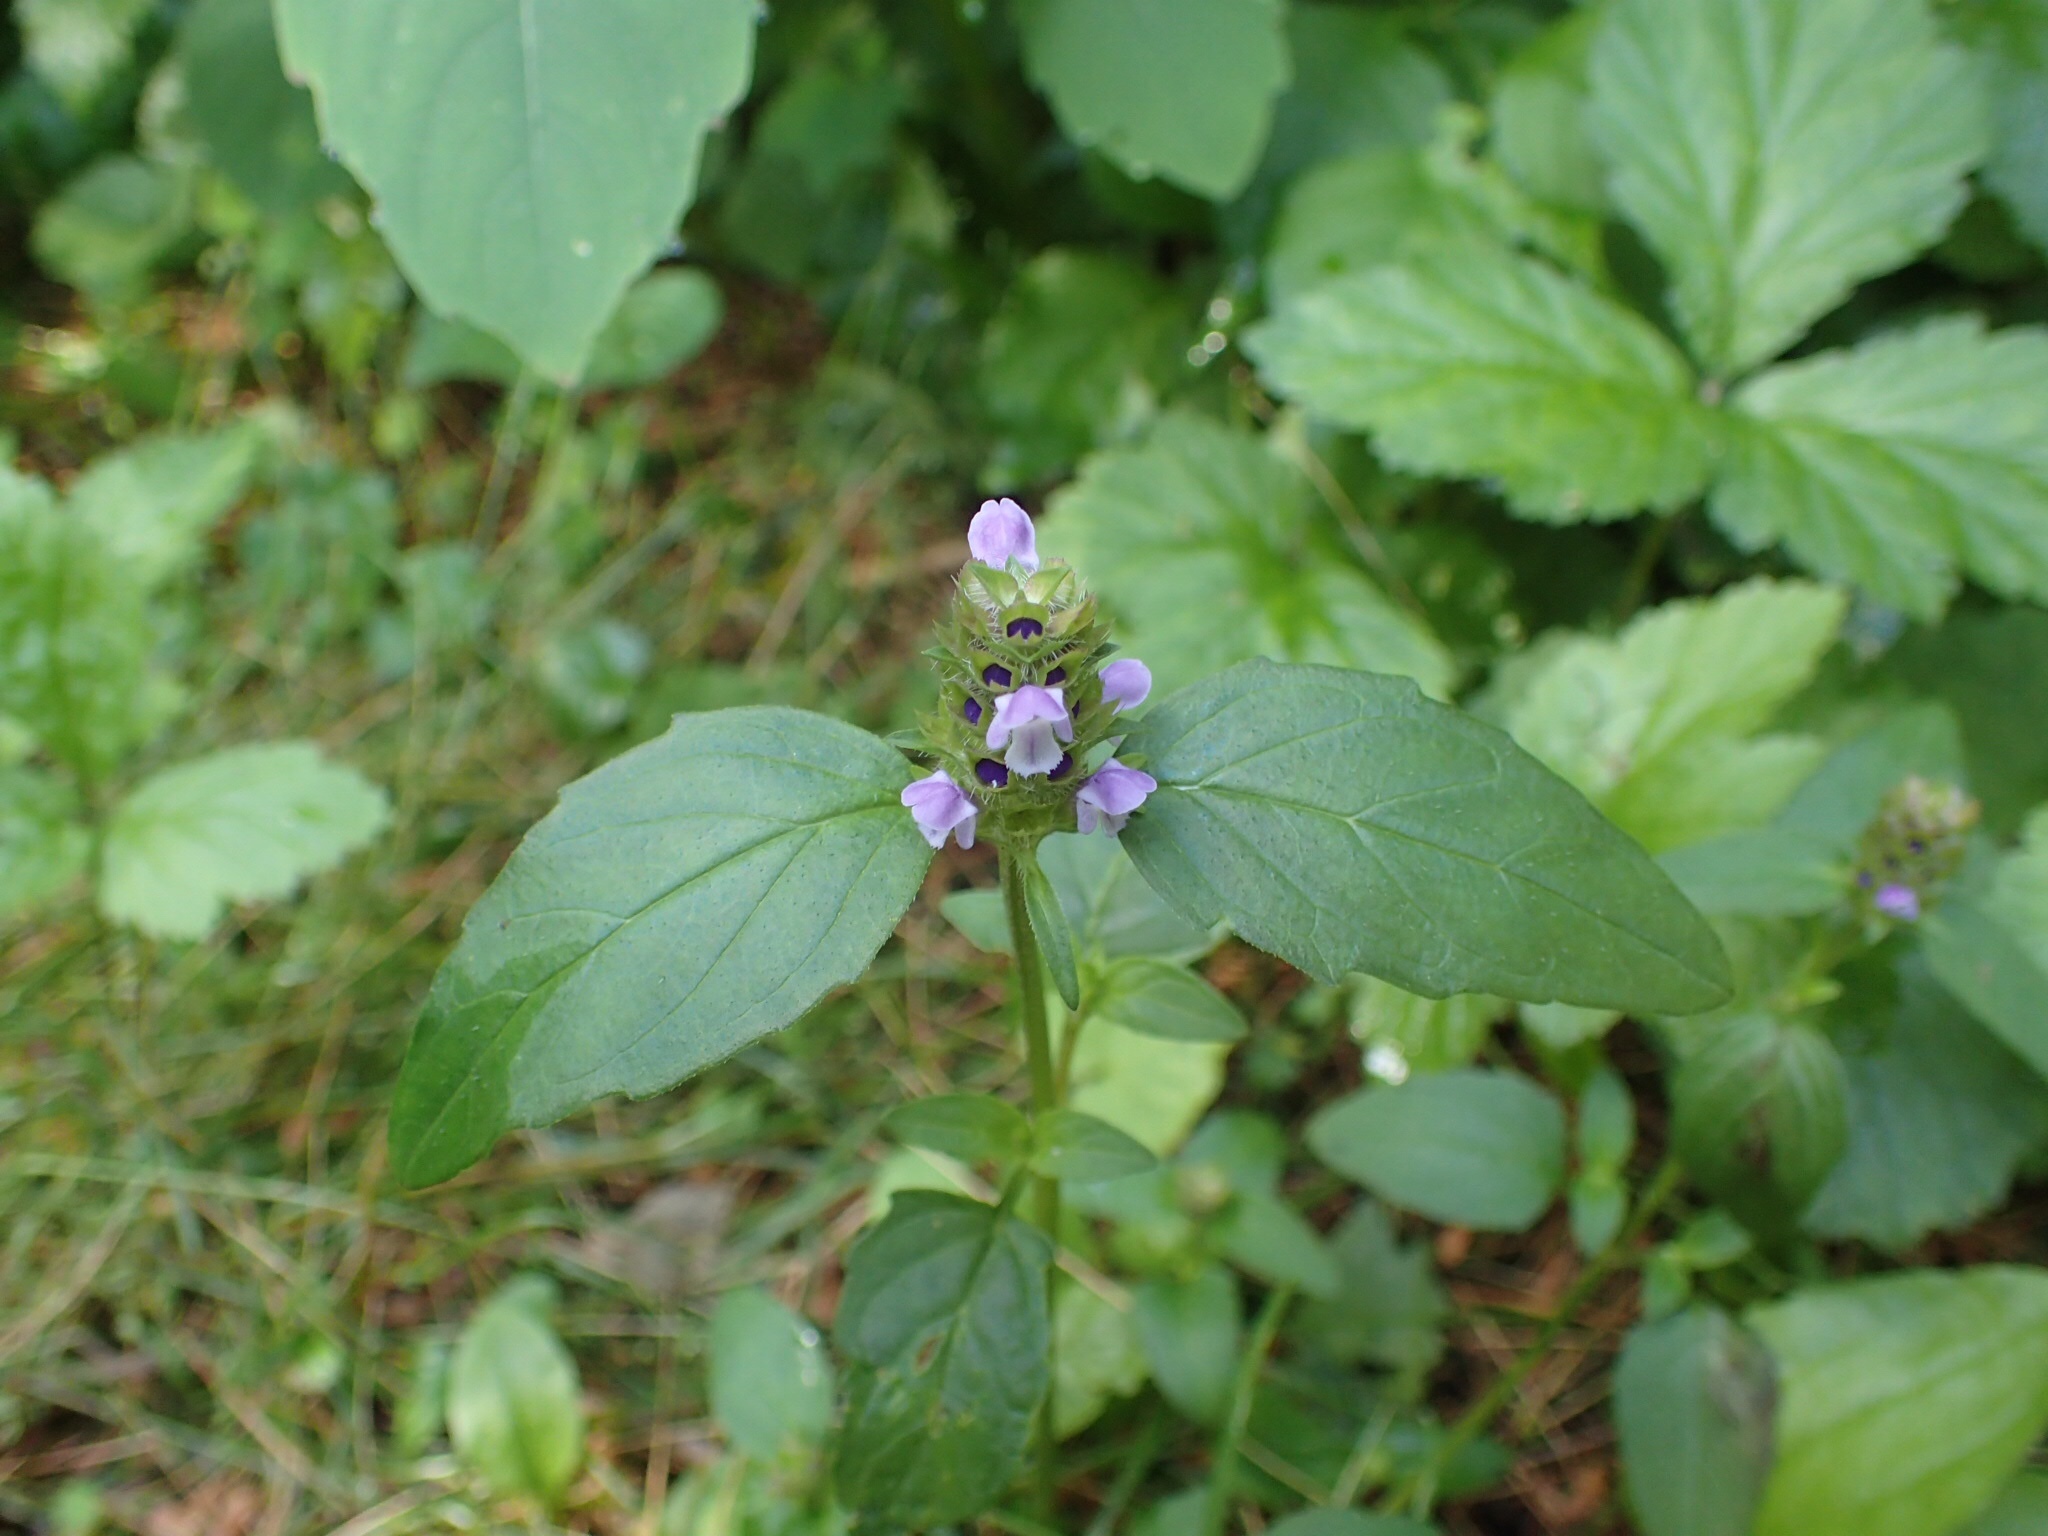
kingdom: Plantae
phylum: Tracheophyta
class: Magnoliopsida
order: Lamiales
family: Lamiaceae
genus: Prunella
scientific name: Prunella vulgaris
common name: Heal-all
